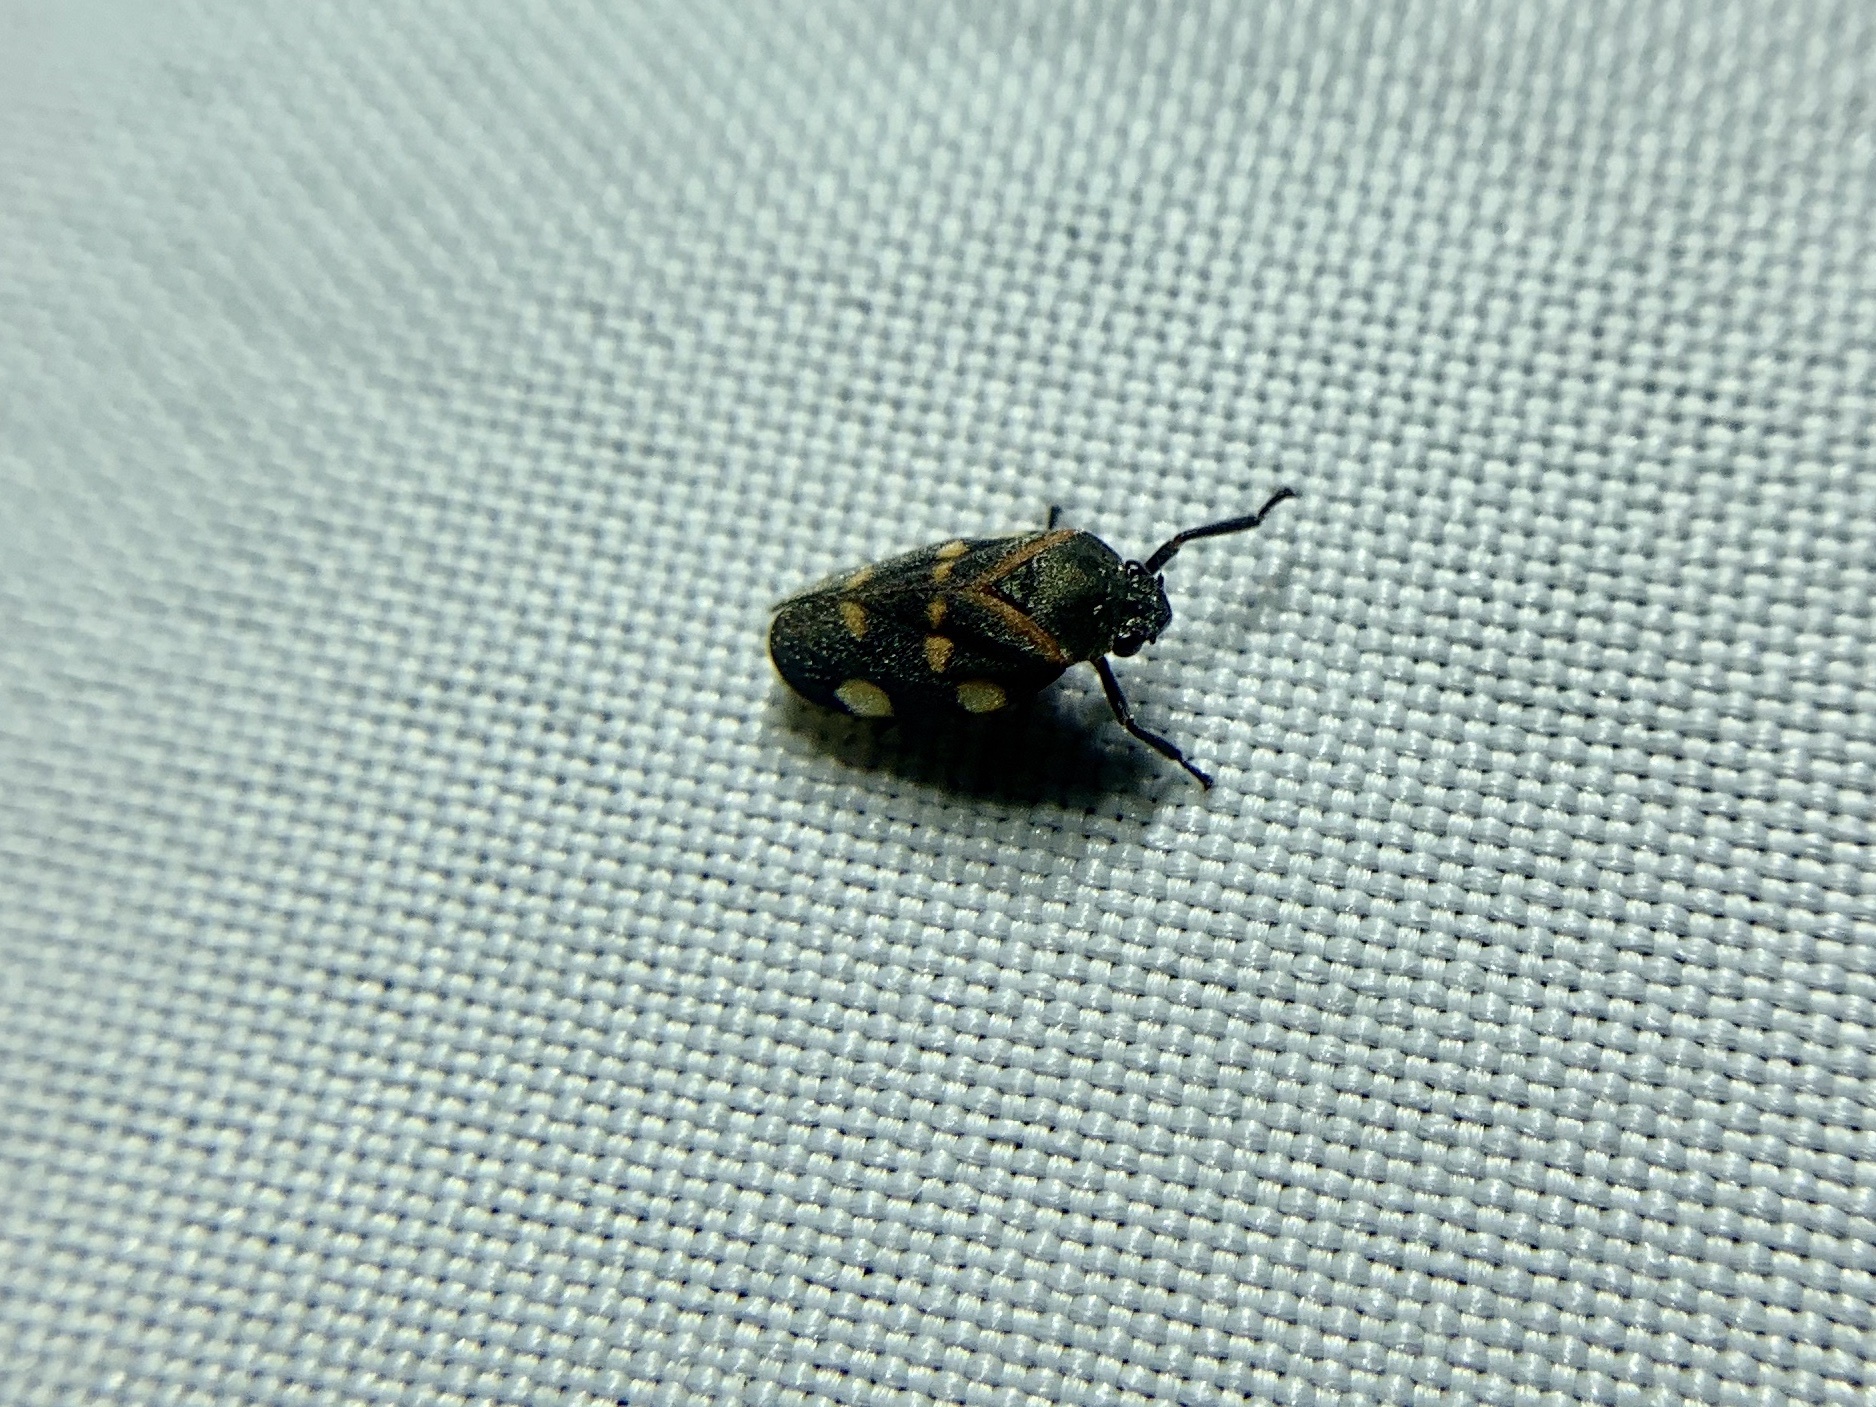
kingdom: Animalia
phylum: Arthropoda
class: Insecta
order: Hemiptera
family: Cercopidae
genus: Aeneolamia
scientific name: Aeneolamia lepidior
